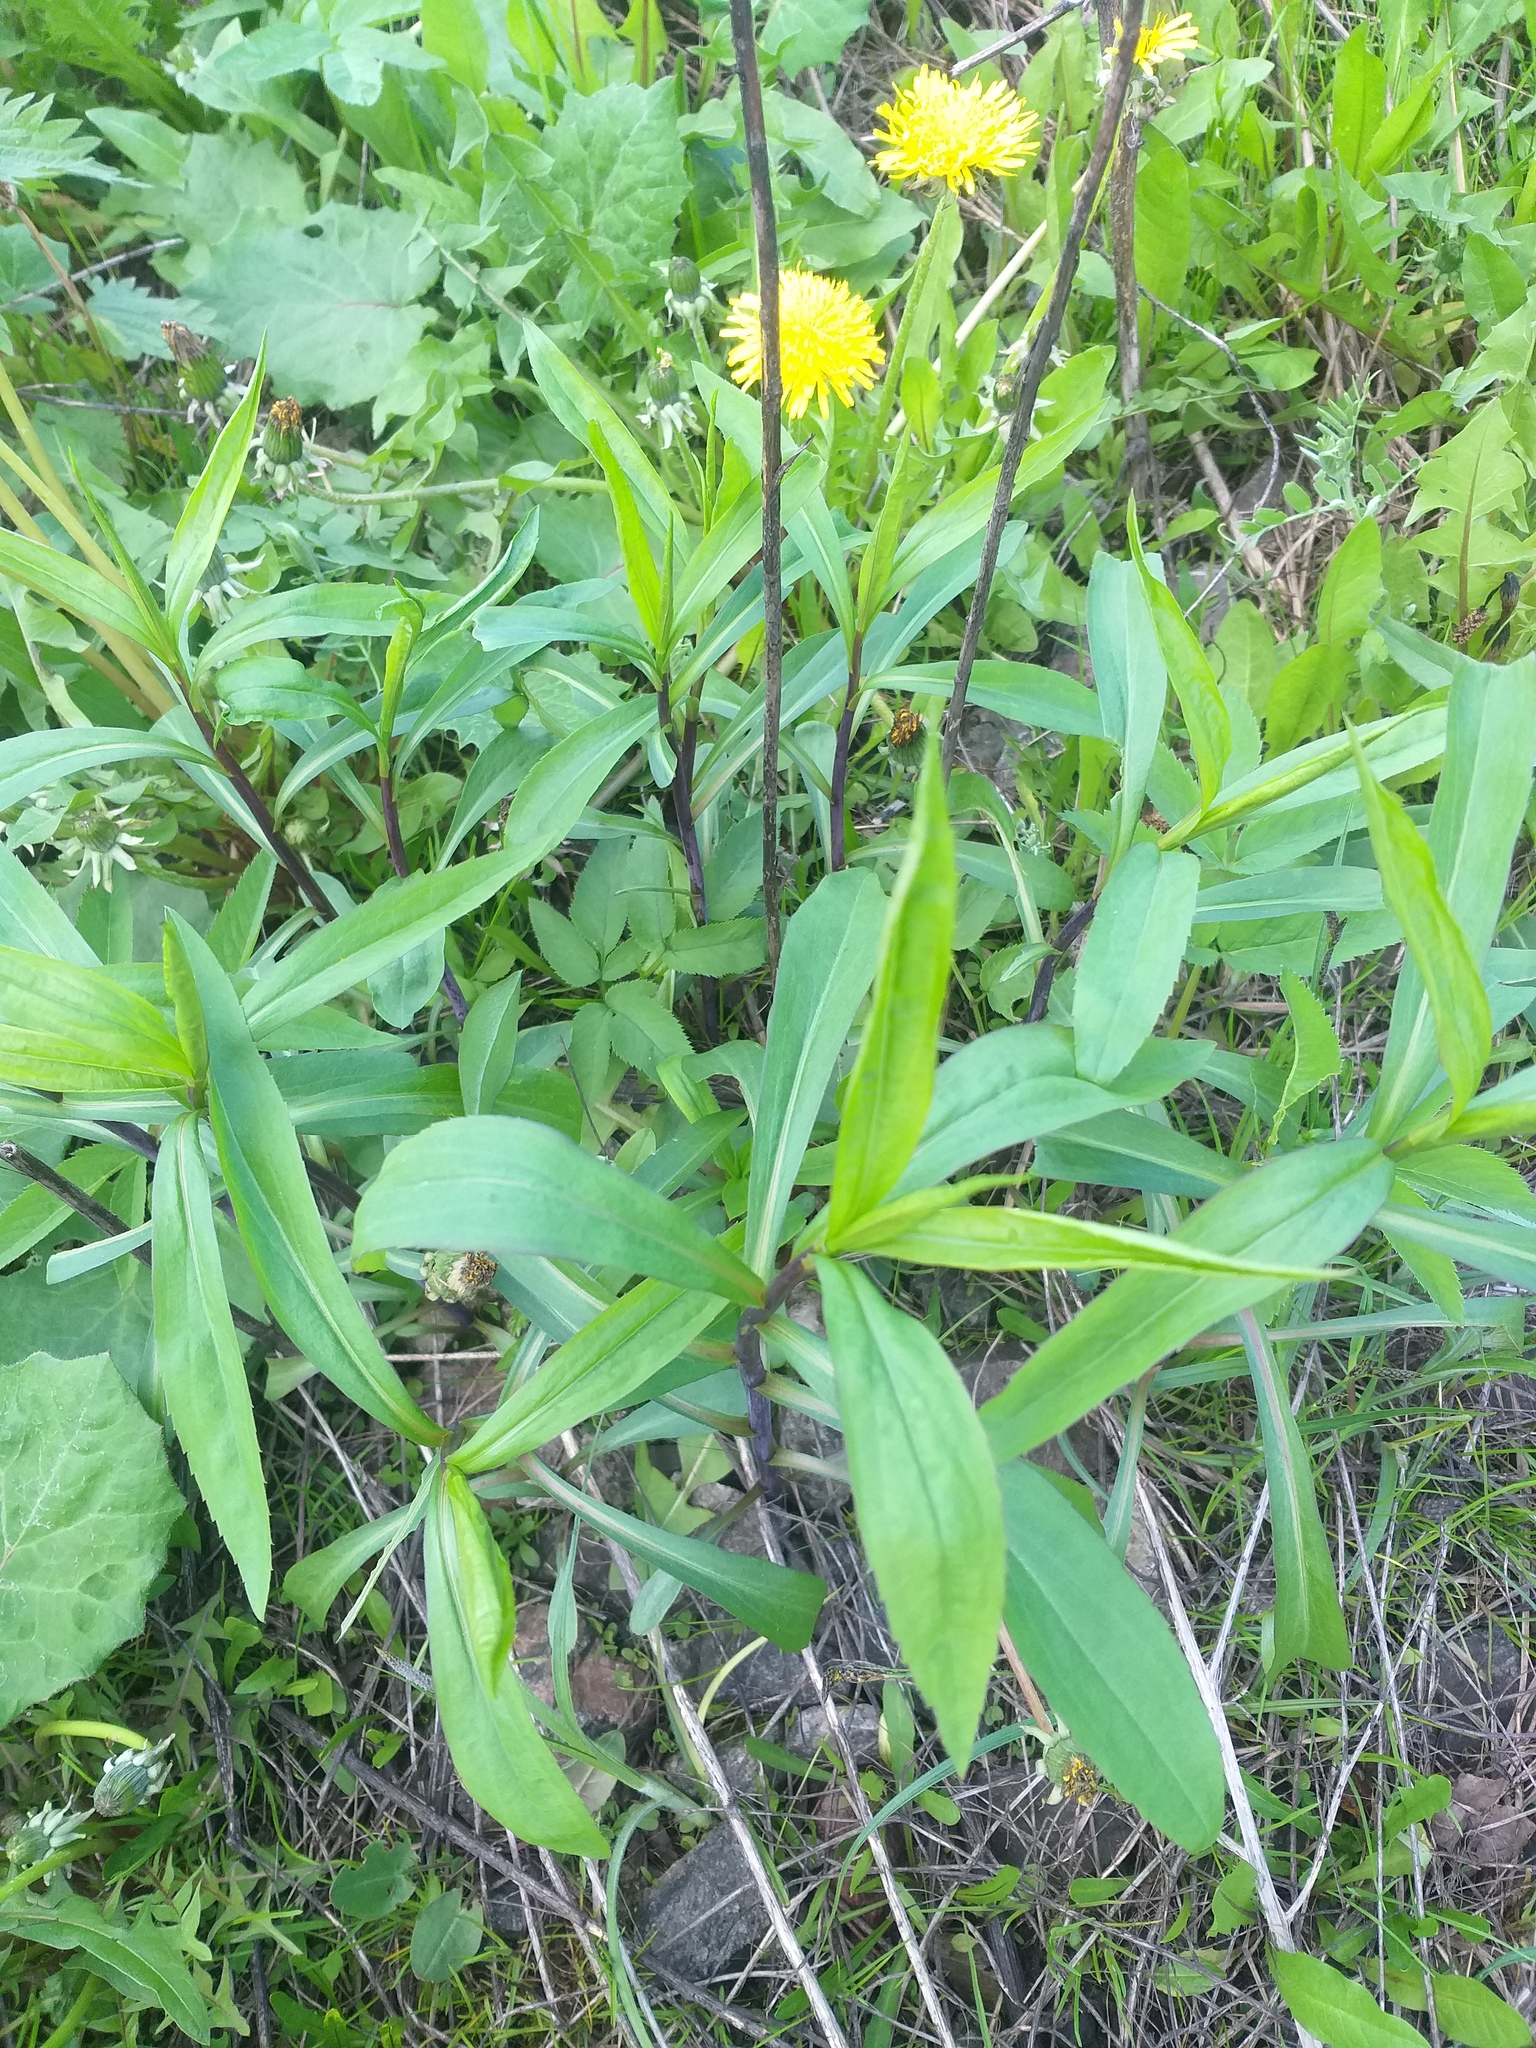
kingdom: Plantae
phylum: Tracheophyta
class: Magnoliopsida
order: Asterales
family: Asteraceae
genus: Solidago
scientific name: Solidago gigantea
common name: Giant goldenrod
